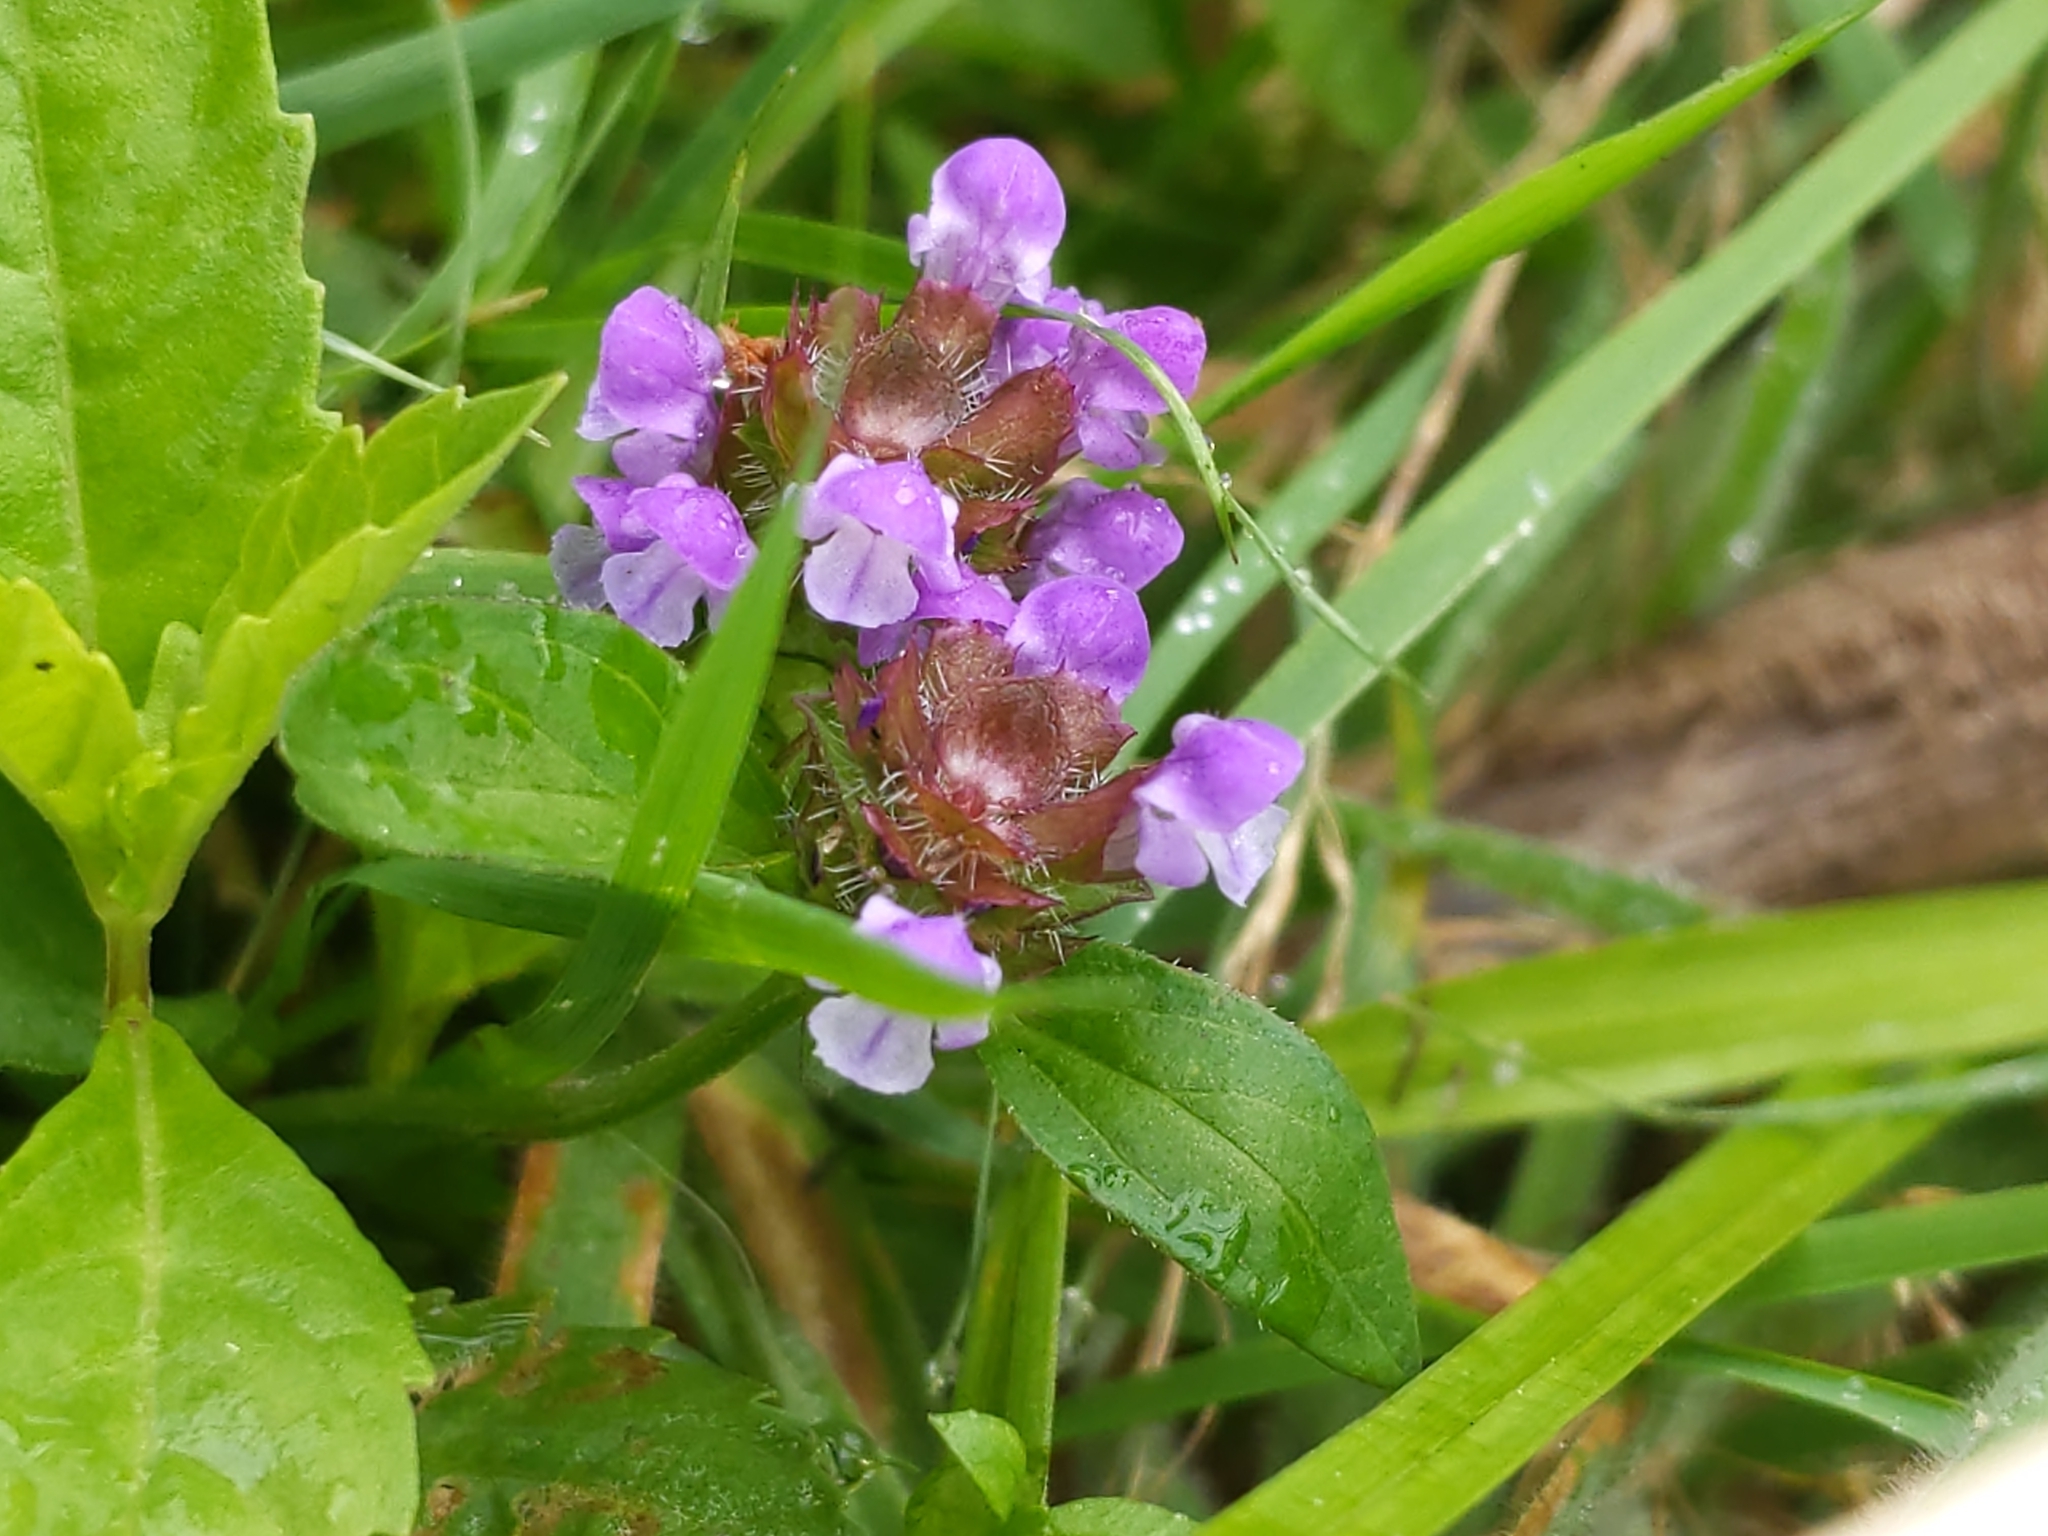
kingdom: Plantae
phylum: Tracheophyta
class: Magnoliopsida
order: Lamiales
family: Lamiaceae
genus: Prunella
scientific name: Prunella vulgaris
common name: Heal-all
